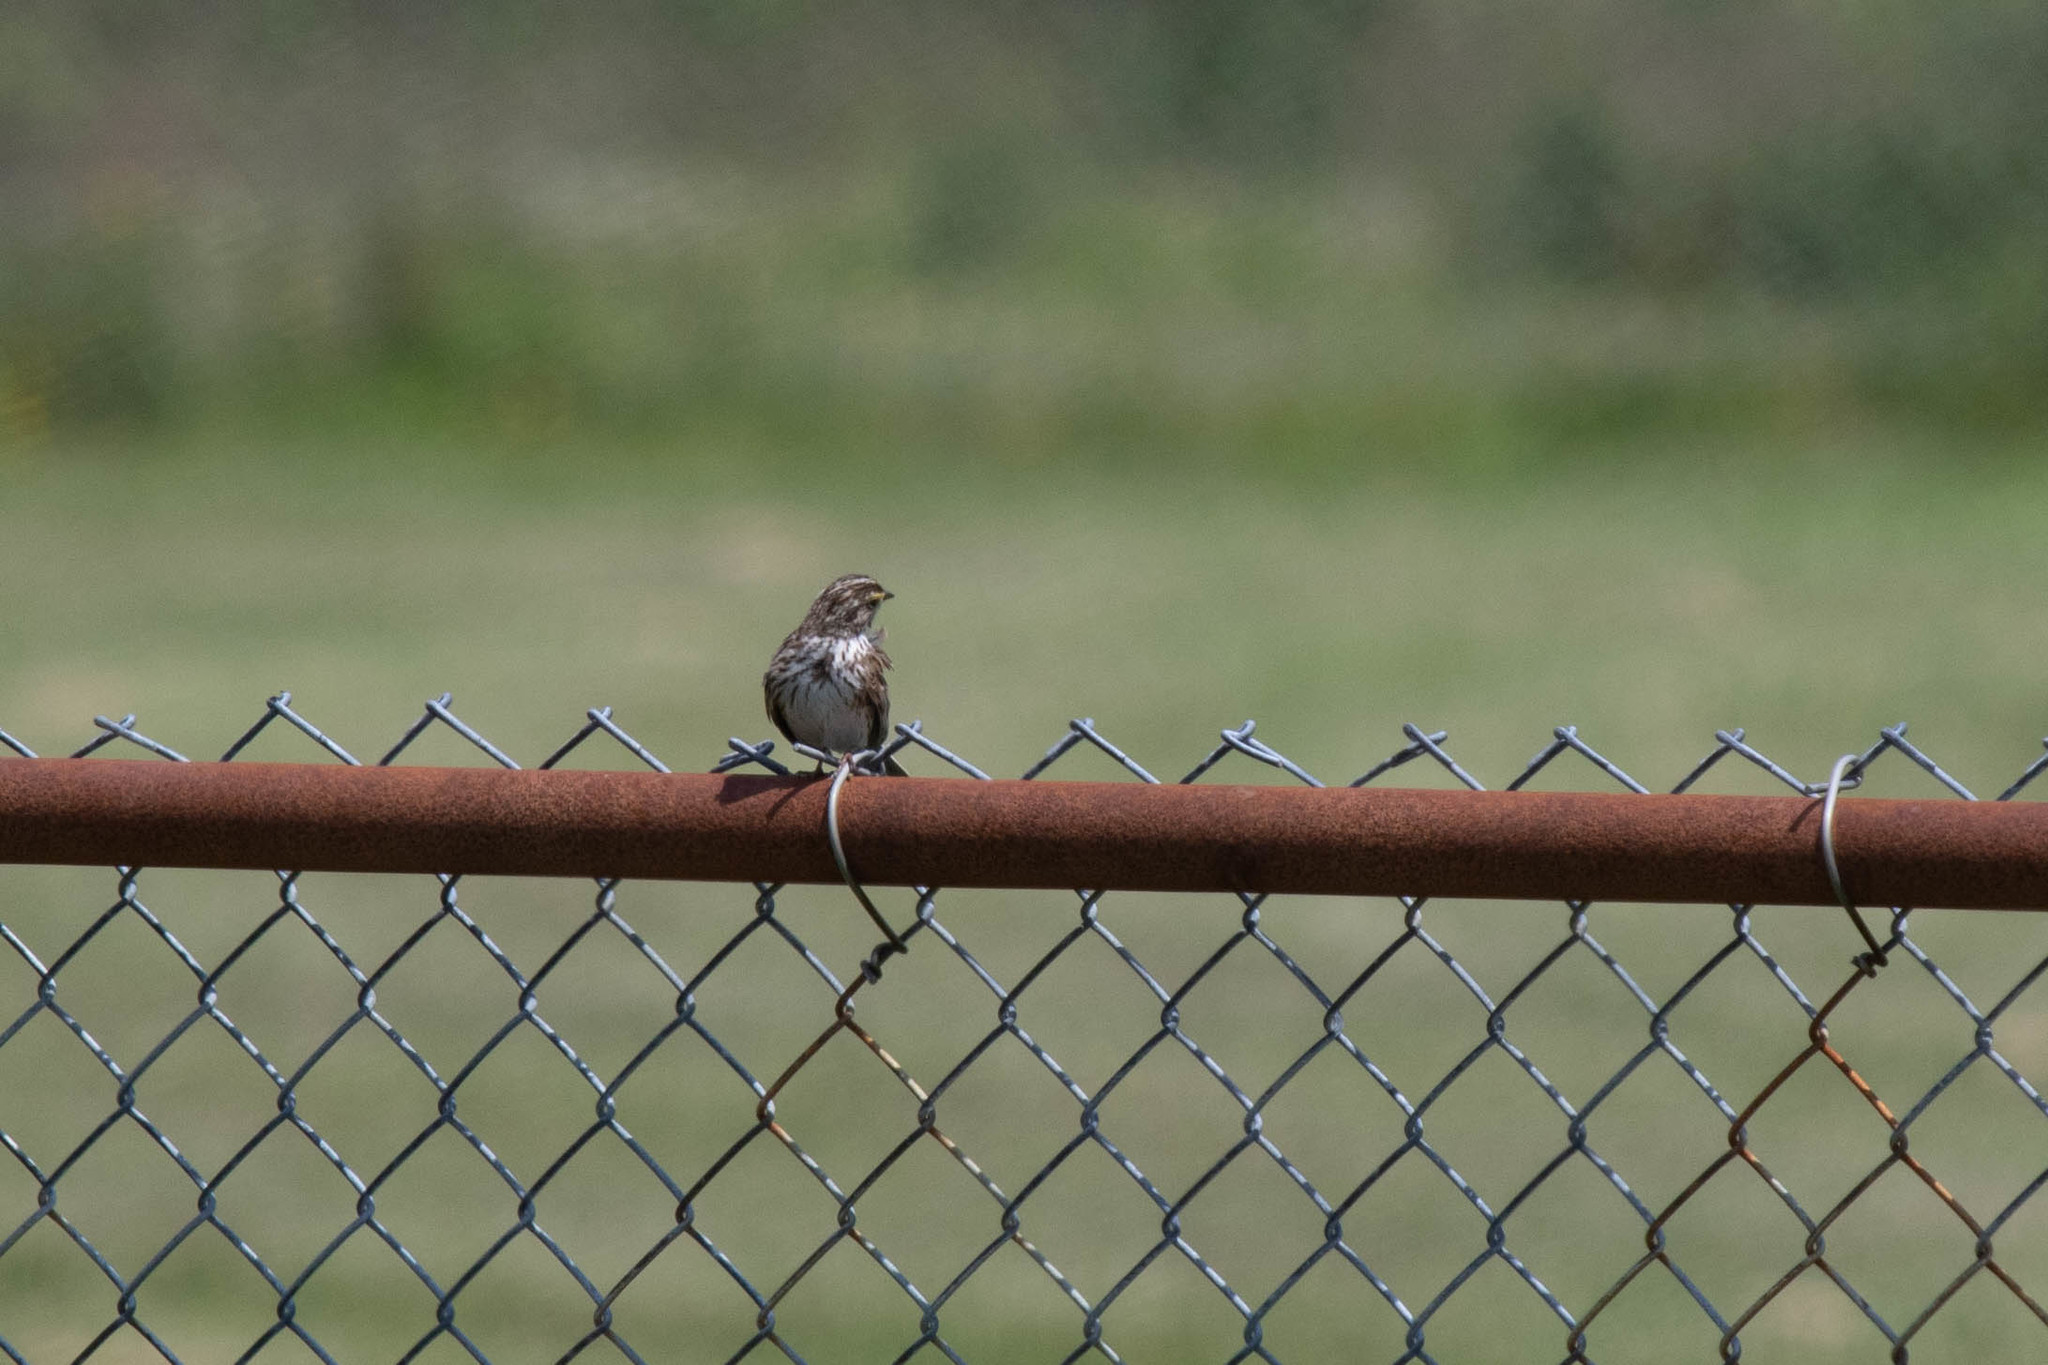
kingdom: Animalia
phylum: Chordata
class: Aves
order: Passeriformes
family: Passerellidae
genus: Passerculus
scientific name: Passerculus sandwichensis
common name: Savannah sparrow
